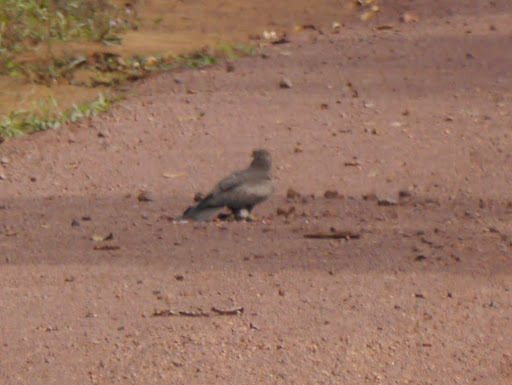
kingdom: Animalia
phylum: Chordata
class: Aves
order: Accipitriformes
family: Accipitridae
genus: Milvus
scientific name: Milvus migrans
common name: Black kite
